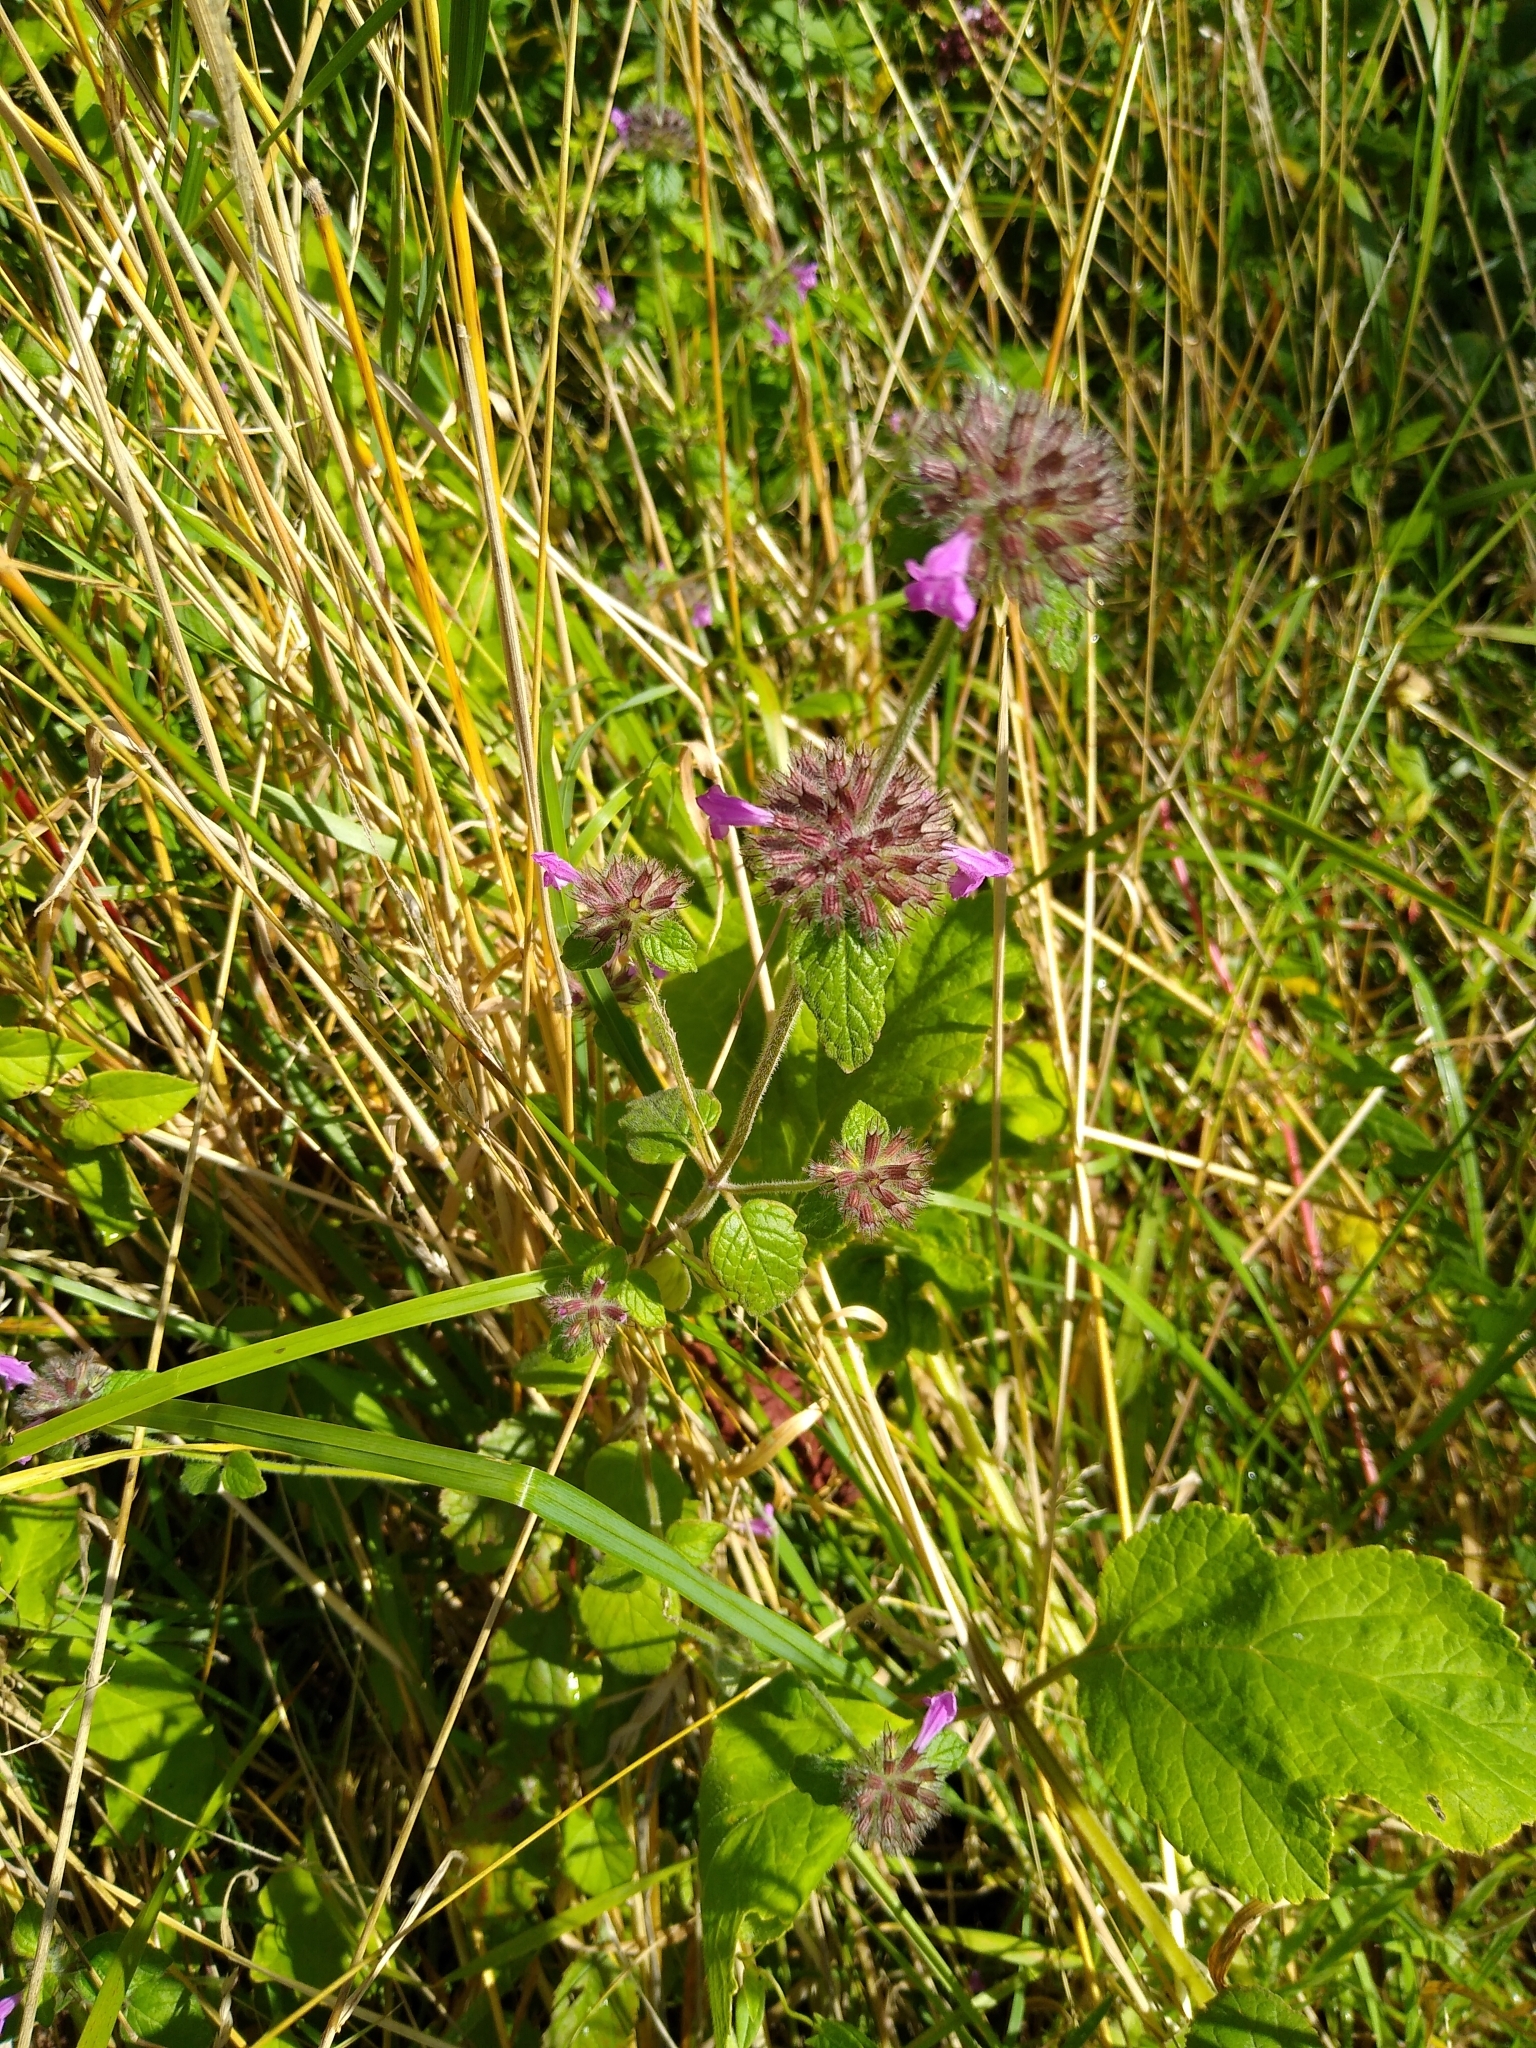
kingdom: Plantae
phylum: Tracheophyta
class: Magnoliopsida
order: Lamiales
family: Lamiaceae
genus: Clinopodium
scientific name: Clinopodium vulgare
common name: Wild basil
